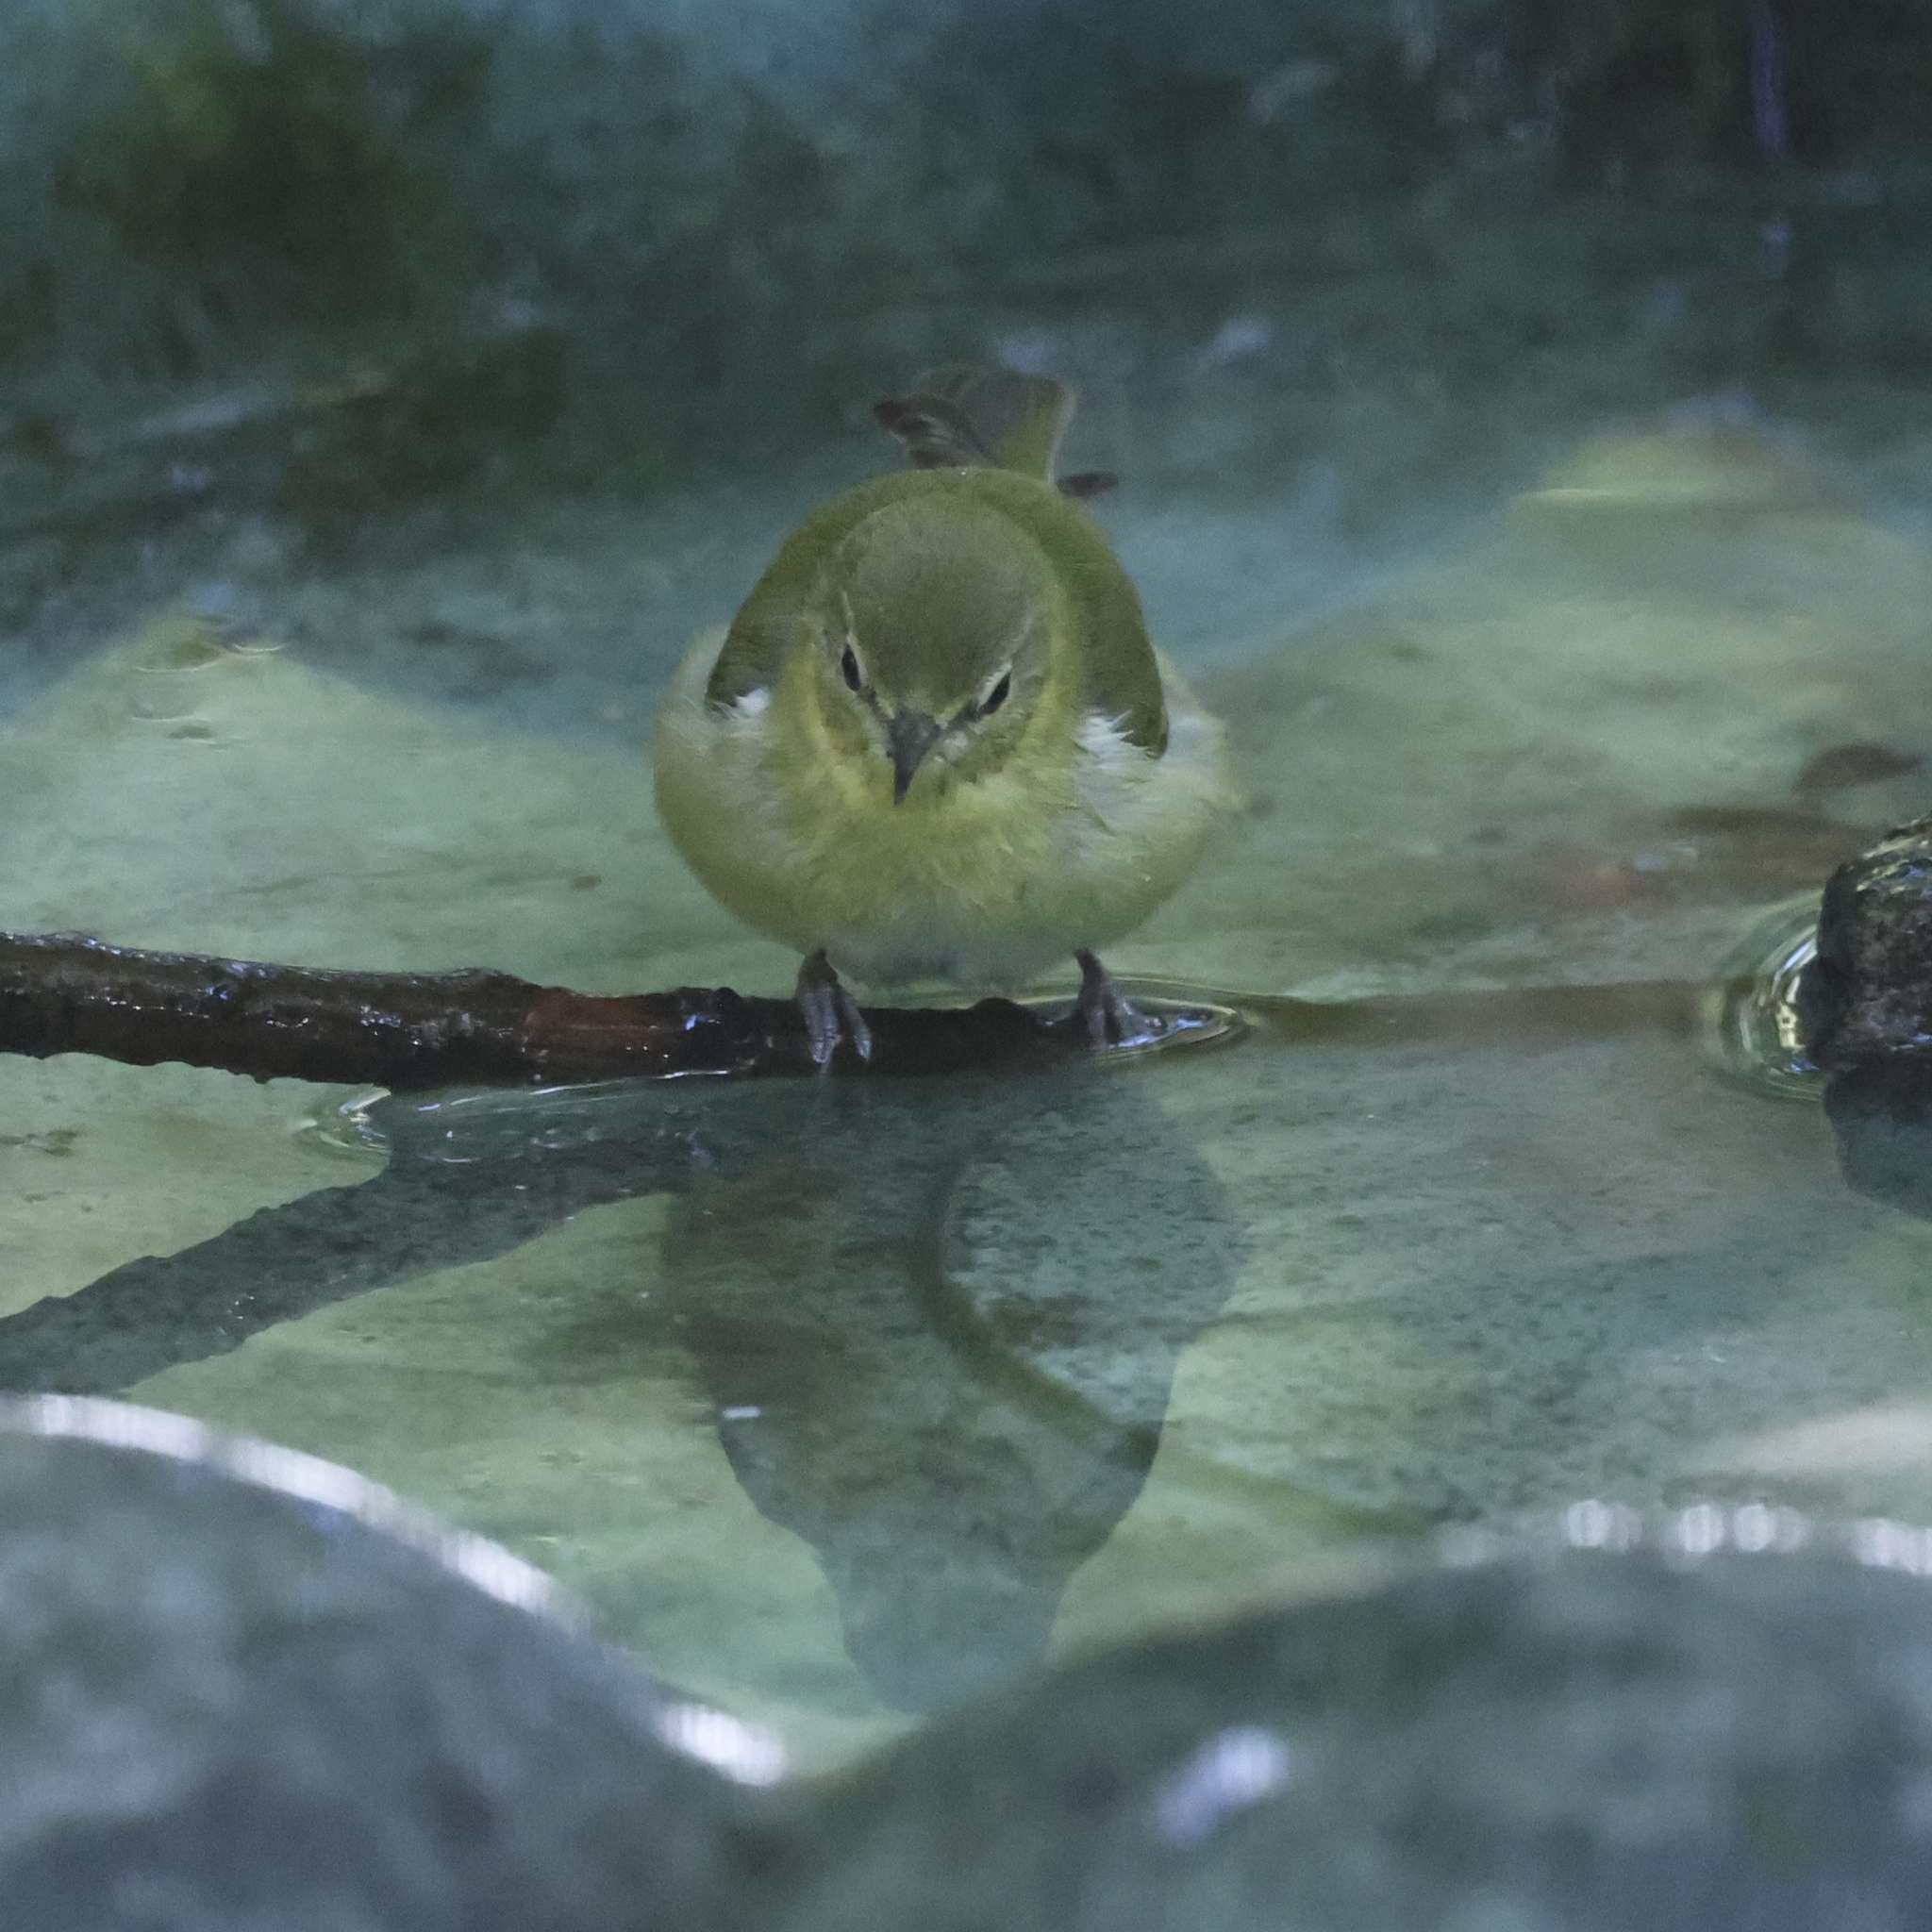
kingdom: Animalia
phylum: Chordata
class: Aves
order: Passeriformes
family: Parulidae
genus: Leiothlypis
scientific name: Leiothlypis peregrina
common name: Tennessee warbler
